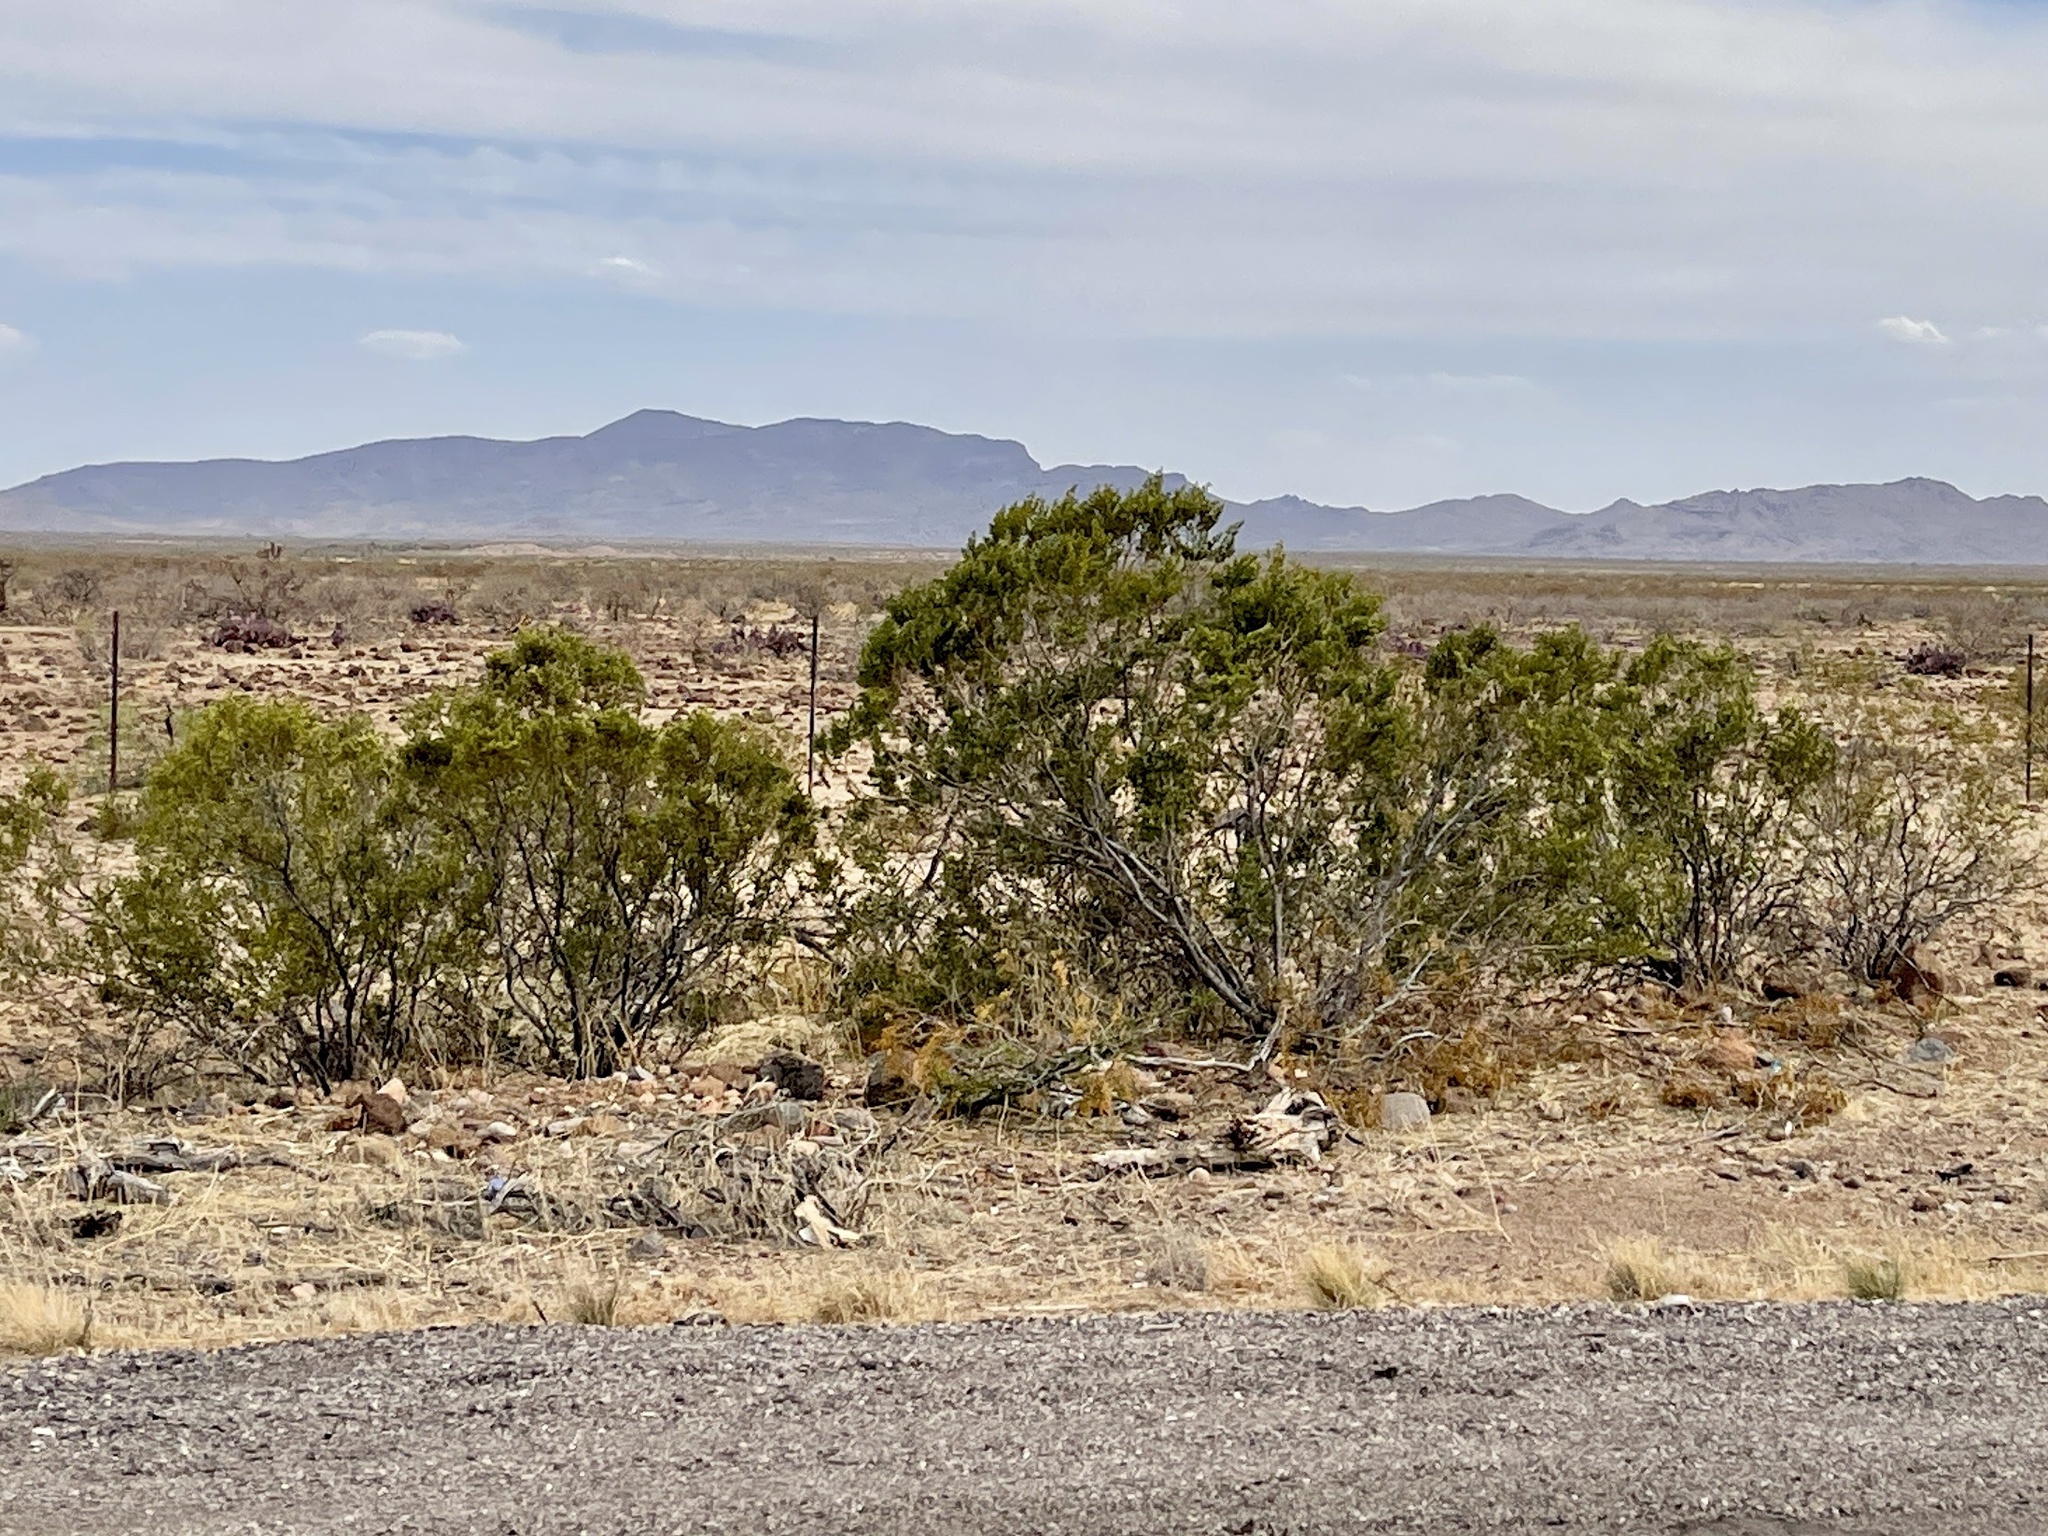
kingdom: Plantae
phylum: Tracheophyta
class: Magnoliopsida
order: Zygophyllales
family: Zygophyllaceae
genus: Larrea
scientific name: Larrea tridentata
